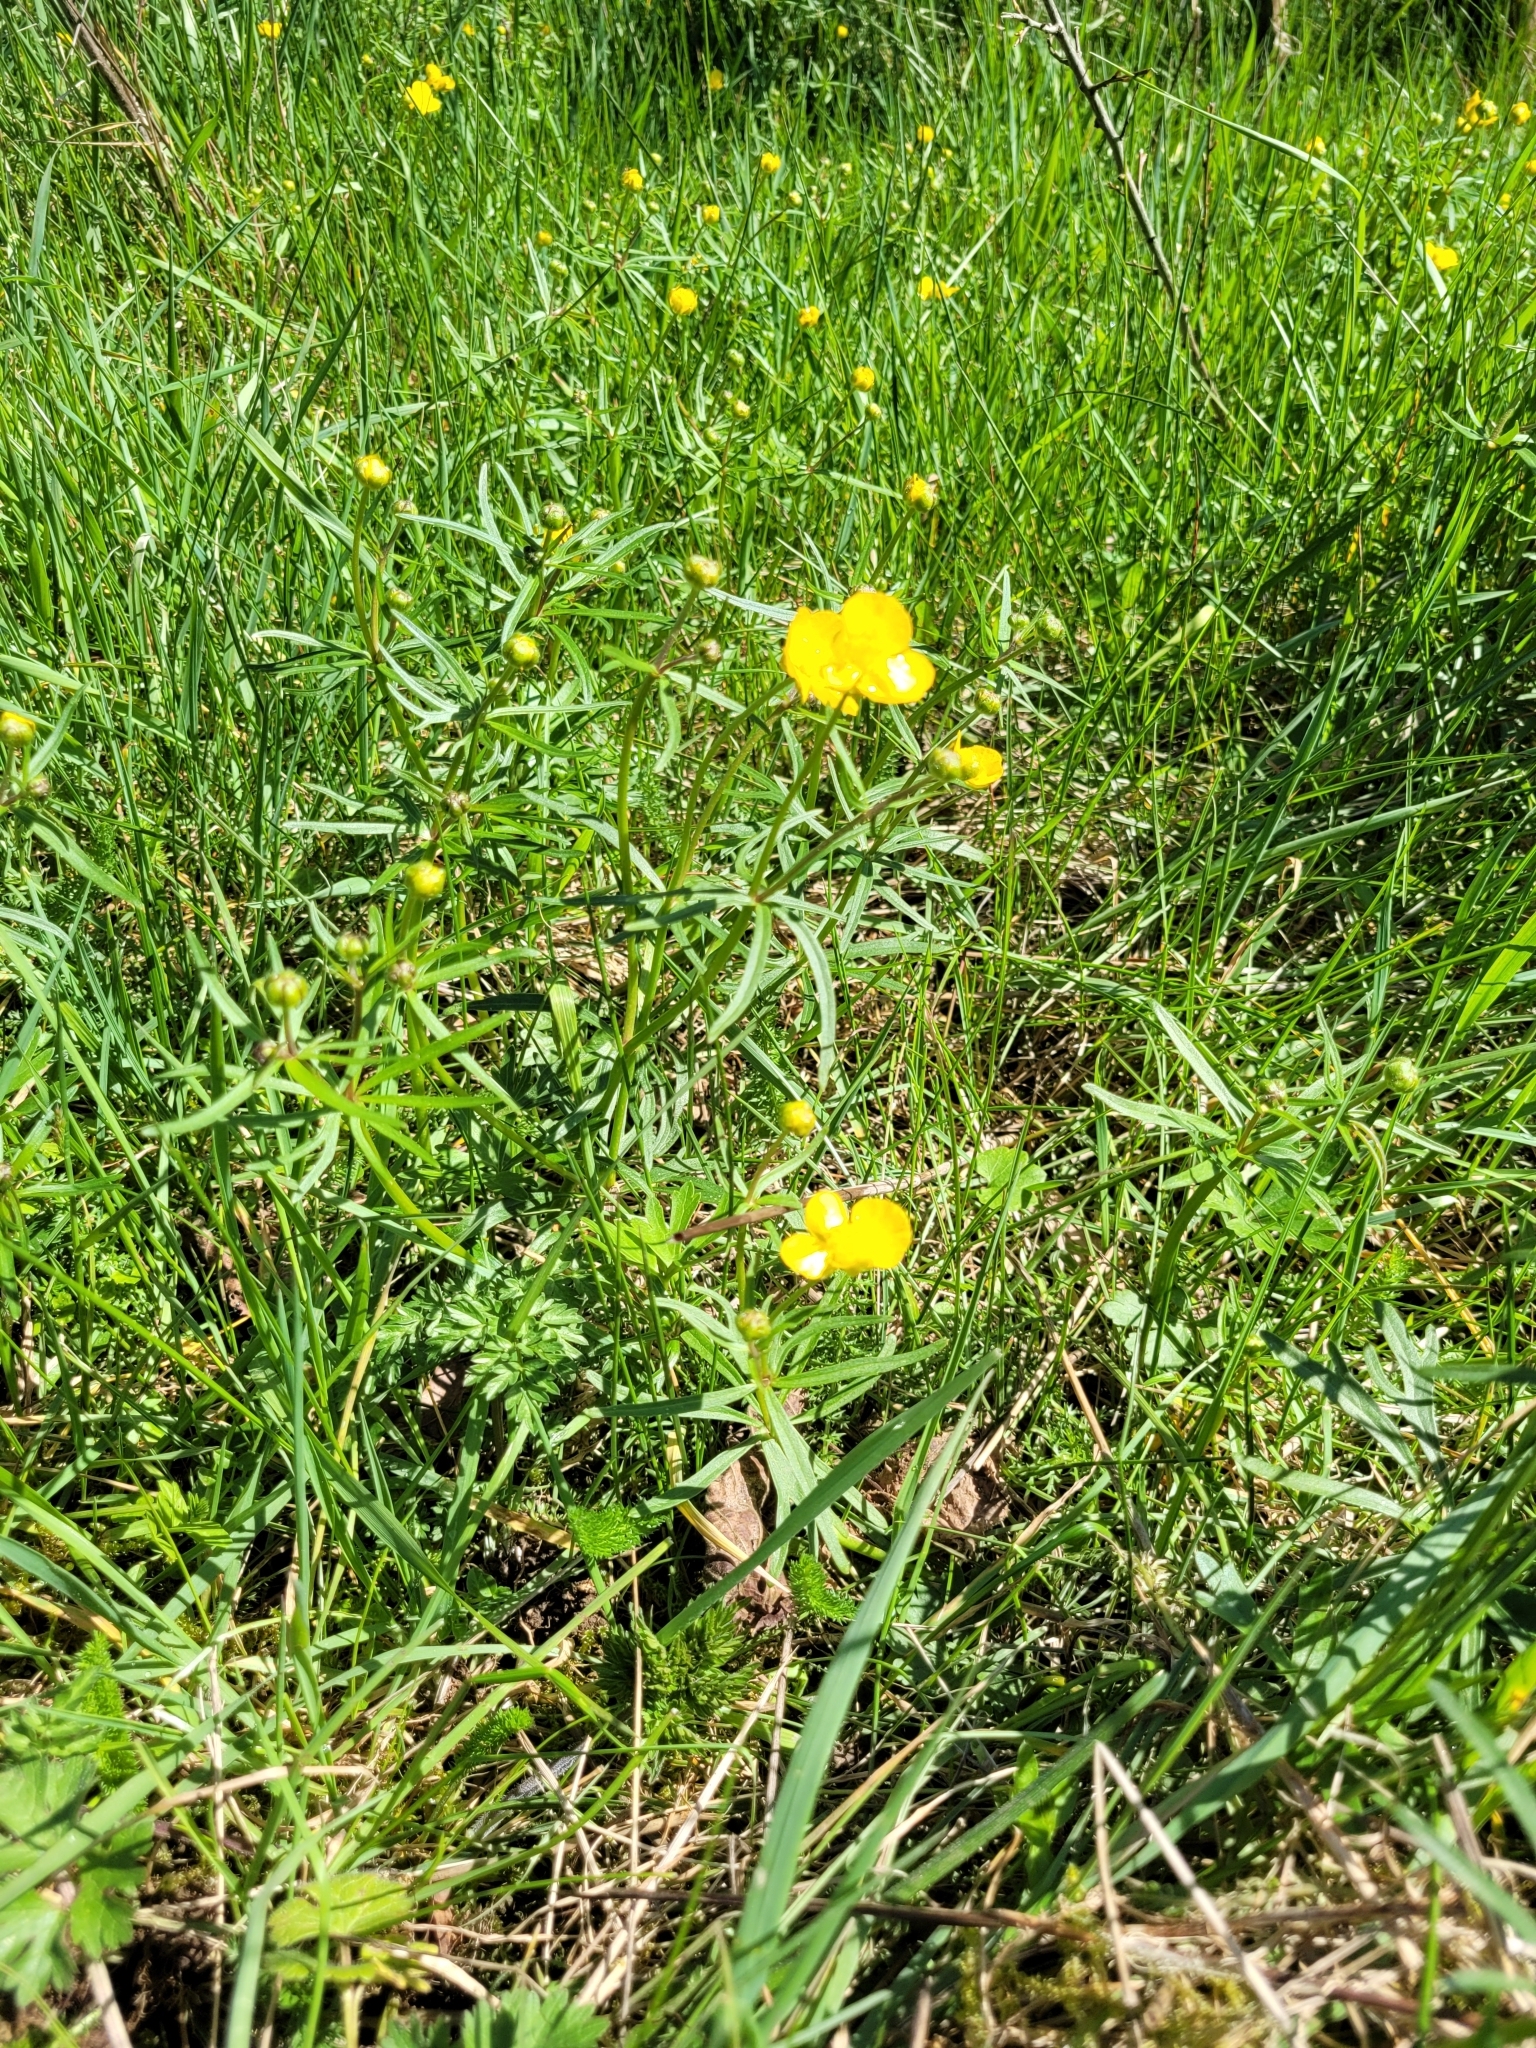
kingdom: Plantae
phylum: Tracheophyta
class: Magnoliopsida
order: Ranunculales
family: Ranunculaceae
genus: Ranunculus
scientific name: Ranunculus auricomus
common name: Goldilocks buttercup
